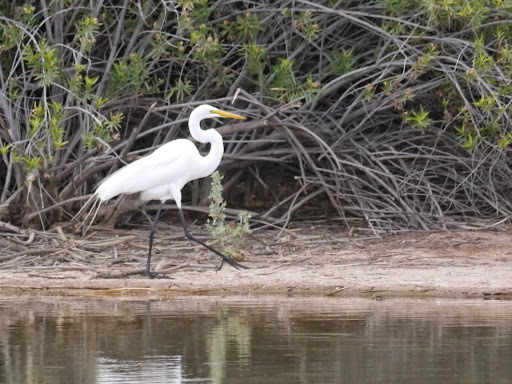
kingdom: Animalia
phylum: Chordata
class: Aves
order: Pelecaniformes
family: Ardeidae
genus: Ardea
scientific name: Ardea alba
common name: Great egret
